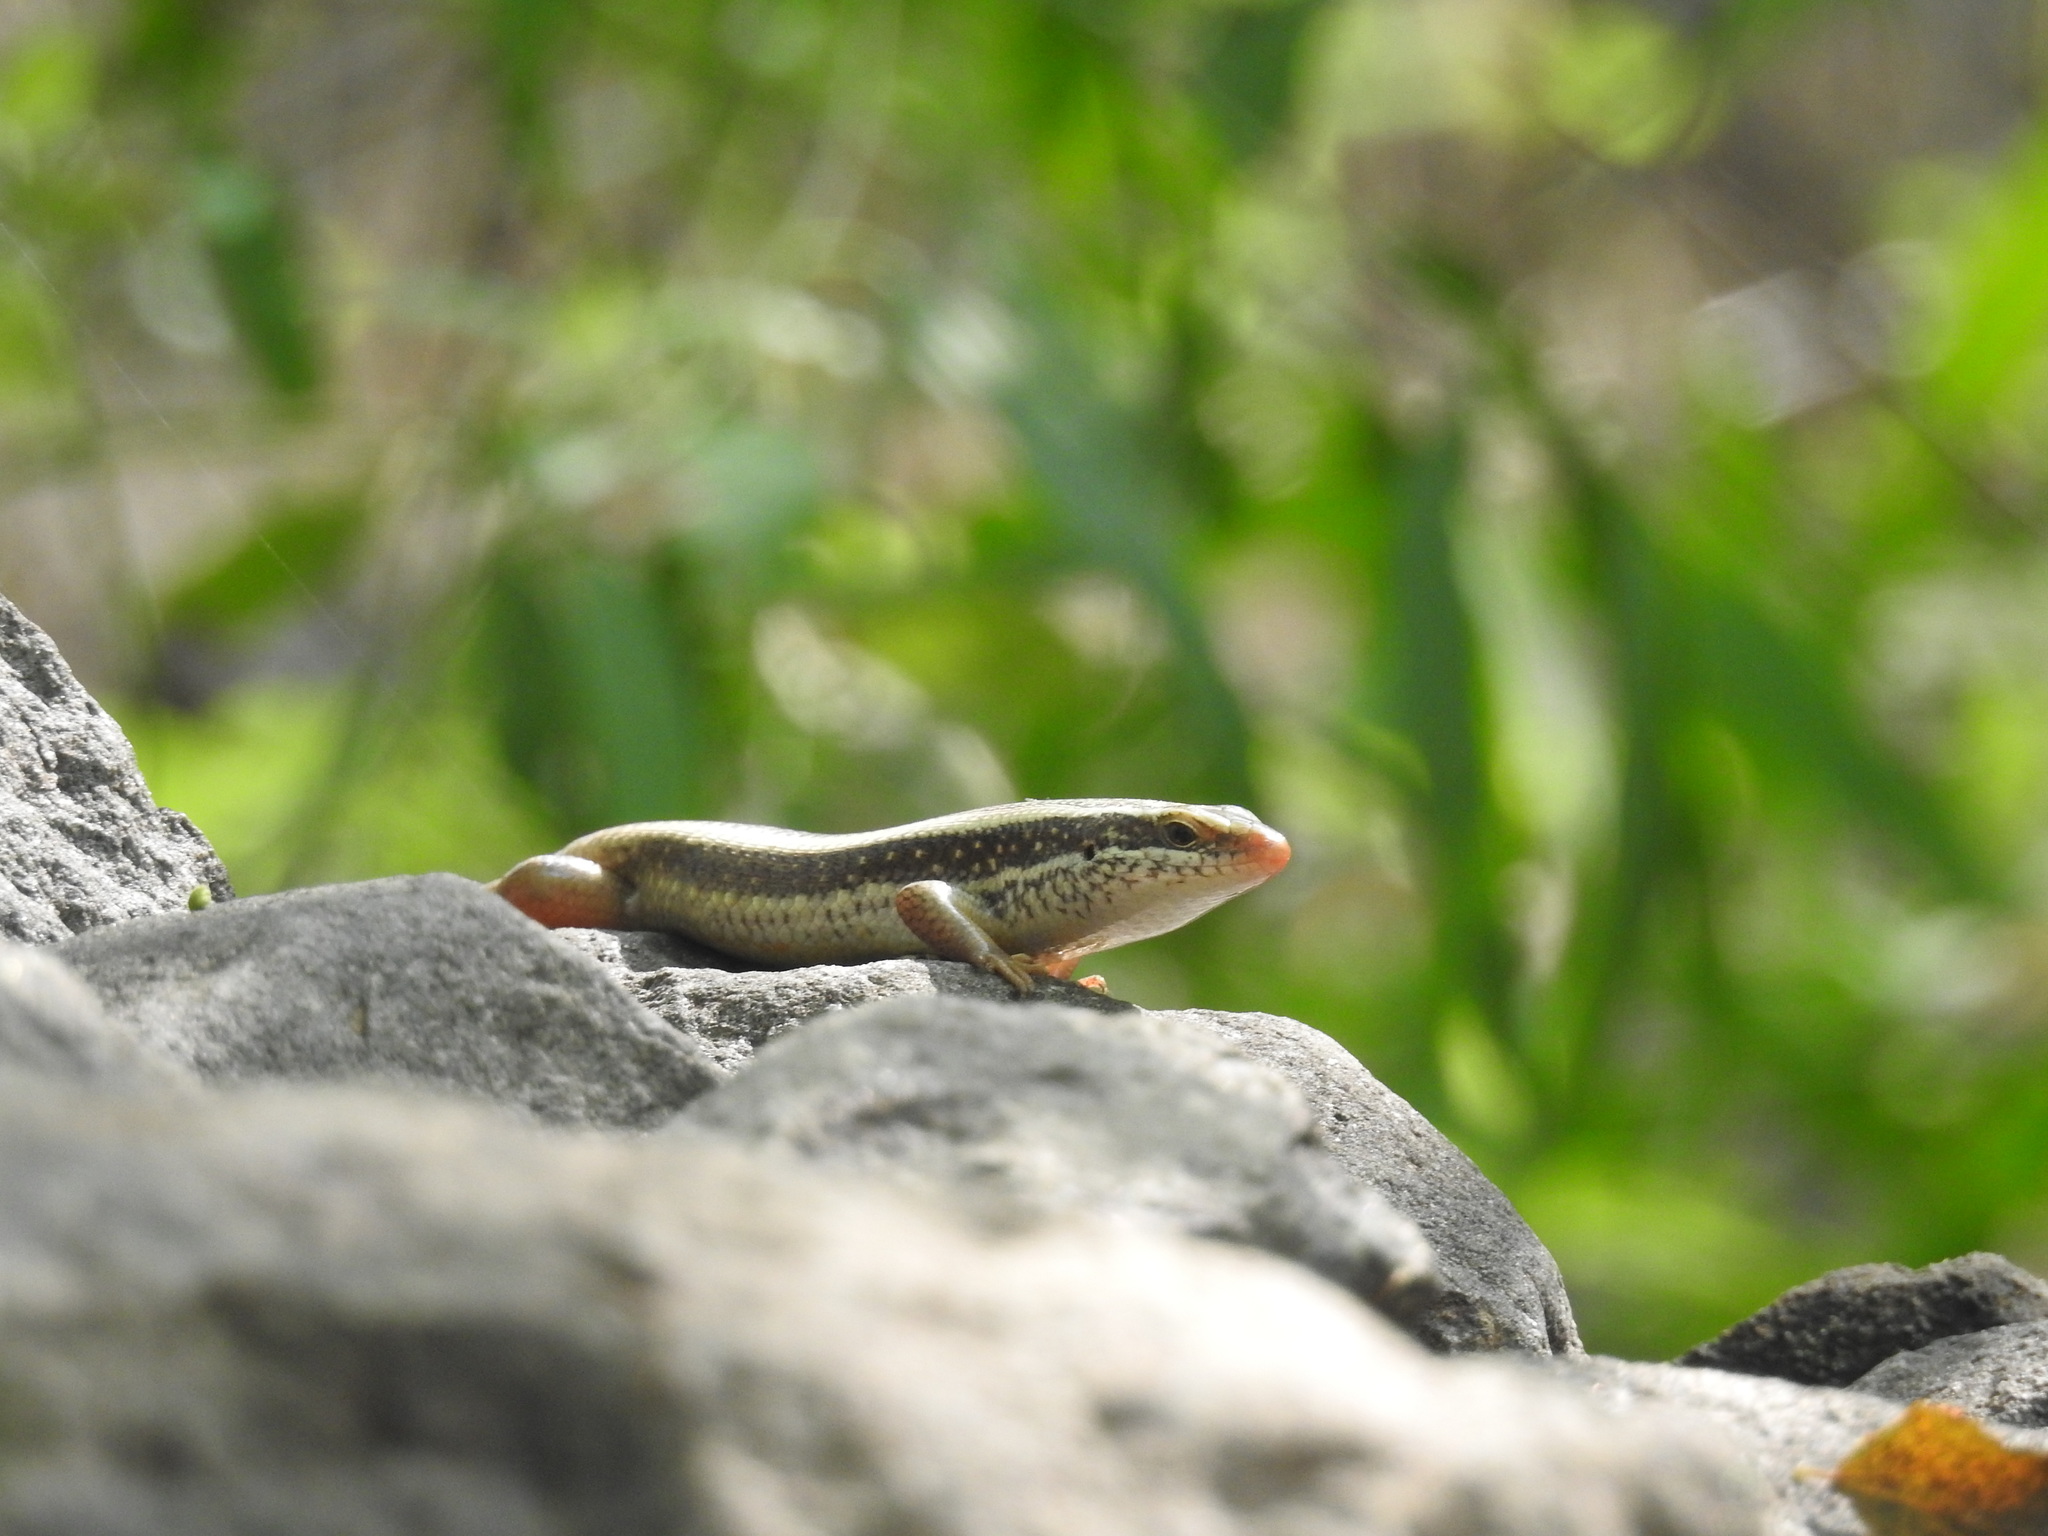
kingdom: Animalia
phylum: Chordata
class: Squamata
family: Scincidae
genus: Eutropis
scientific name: Eutropis carinata
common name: Keeled indian mabuya
